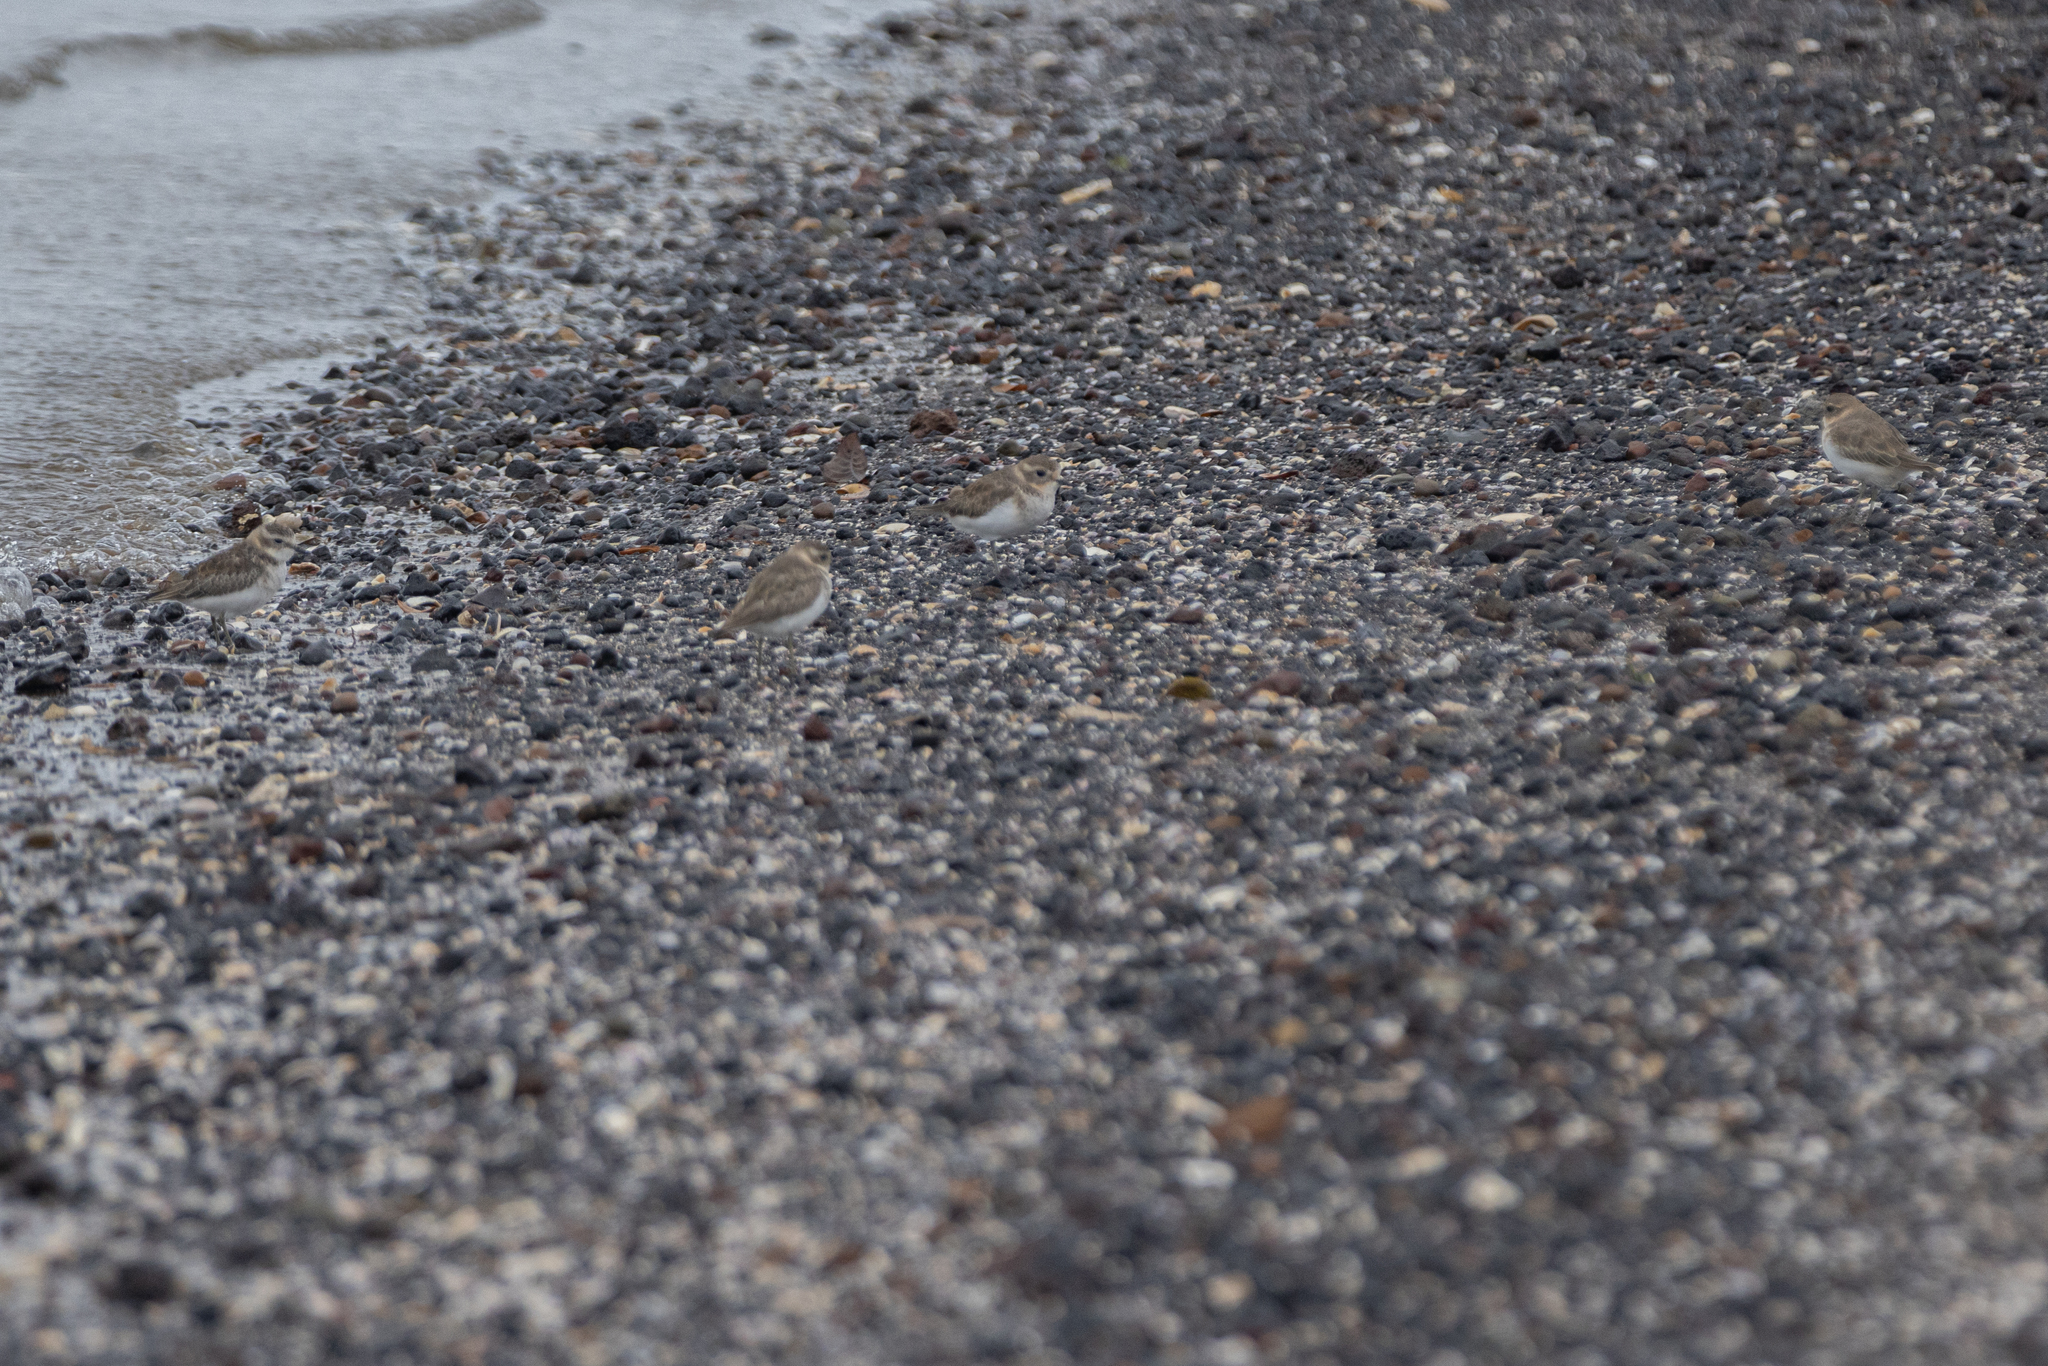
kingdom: Animalia
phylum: Chordata
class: Aves
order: Charadriiformes
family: Charadriidae
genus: Anarhynchus
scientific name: Anarhynchus
